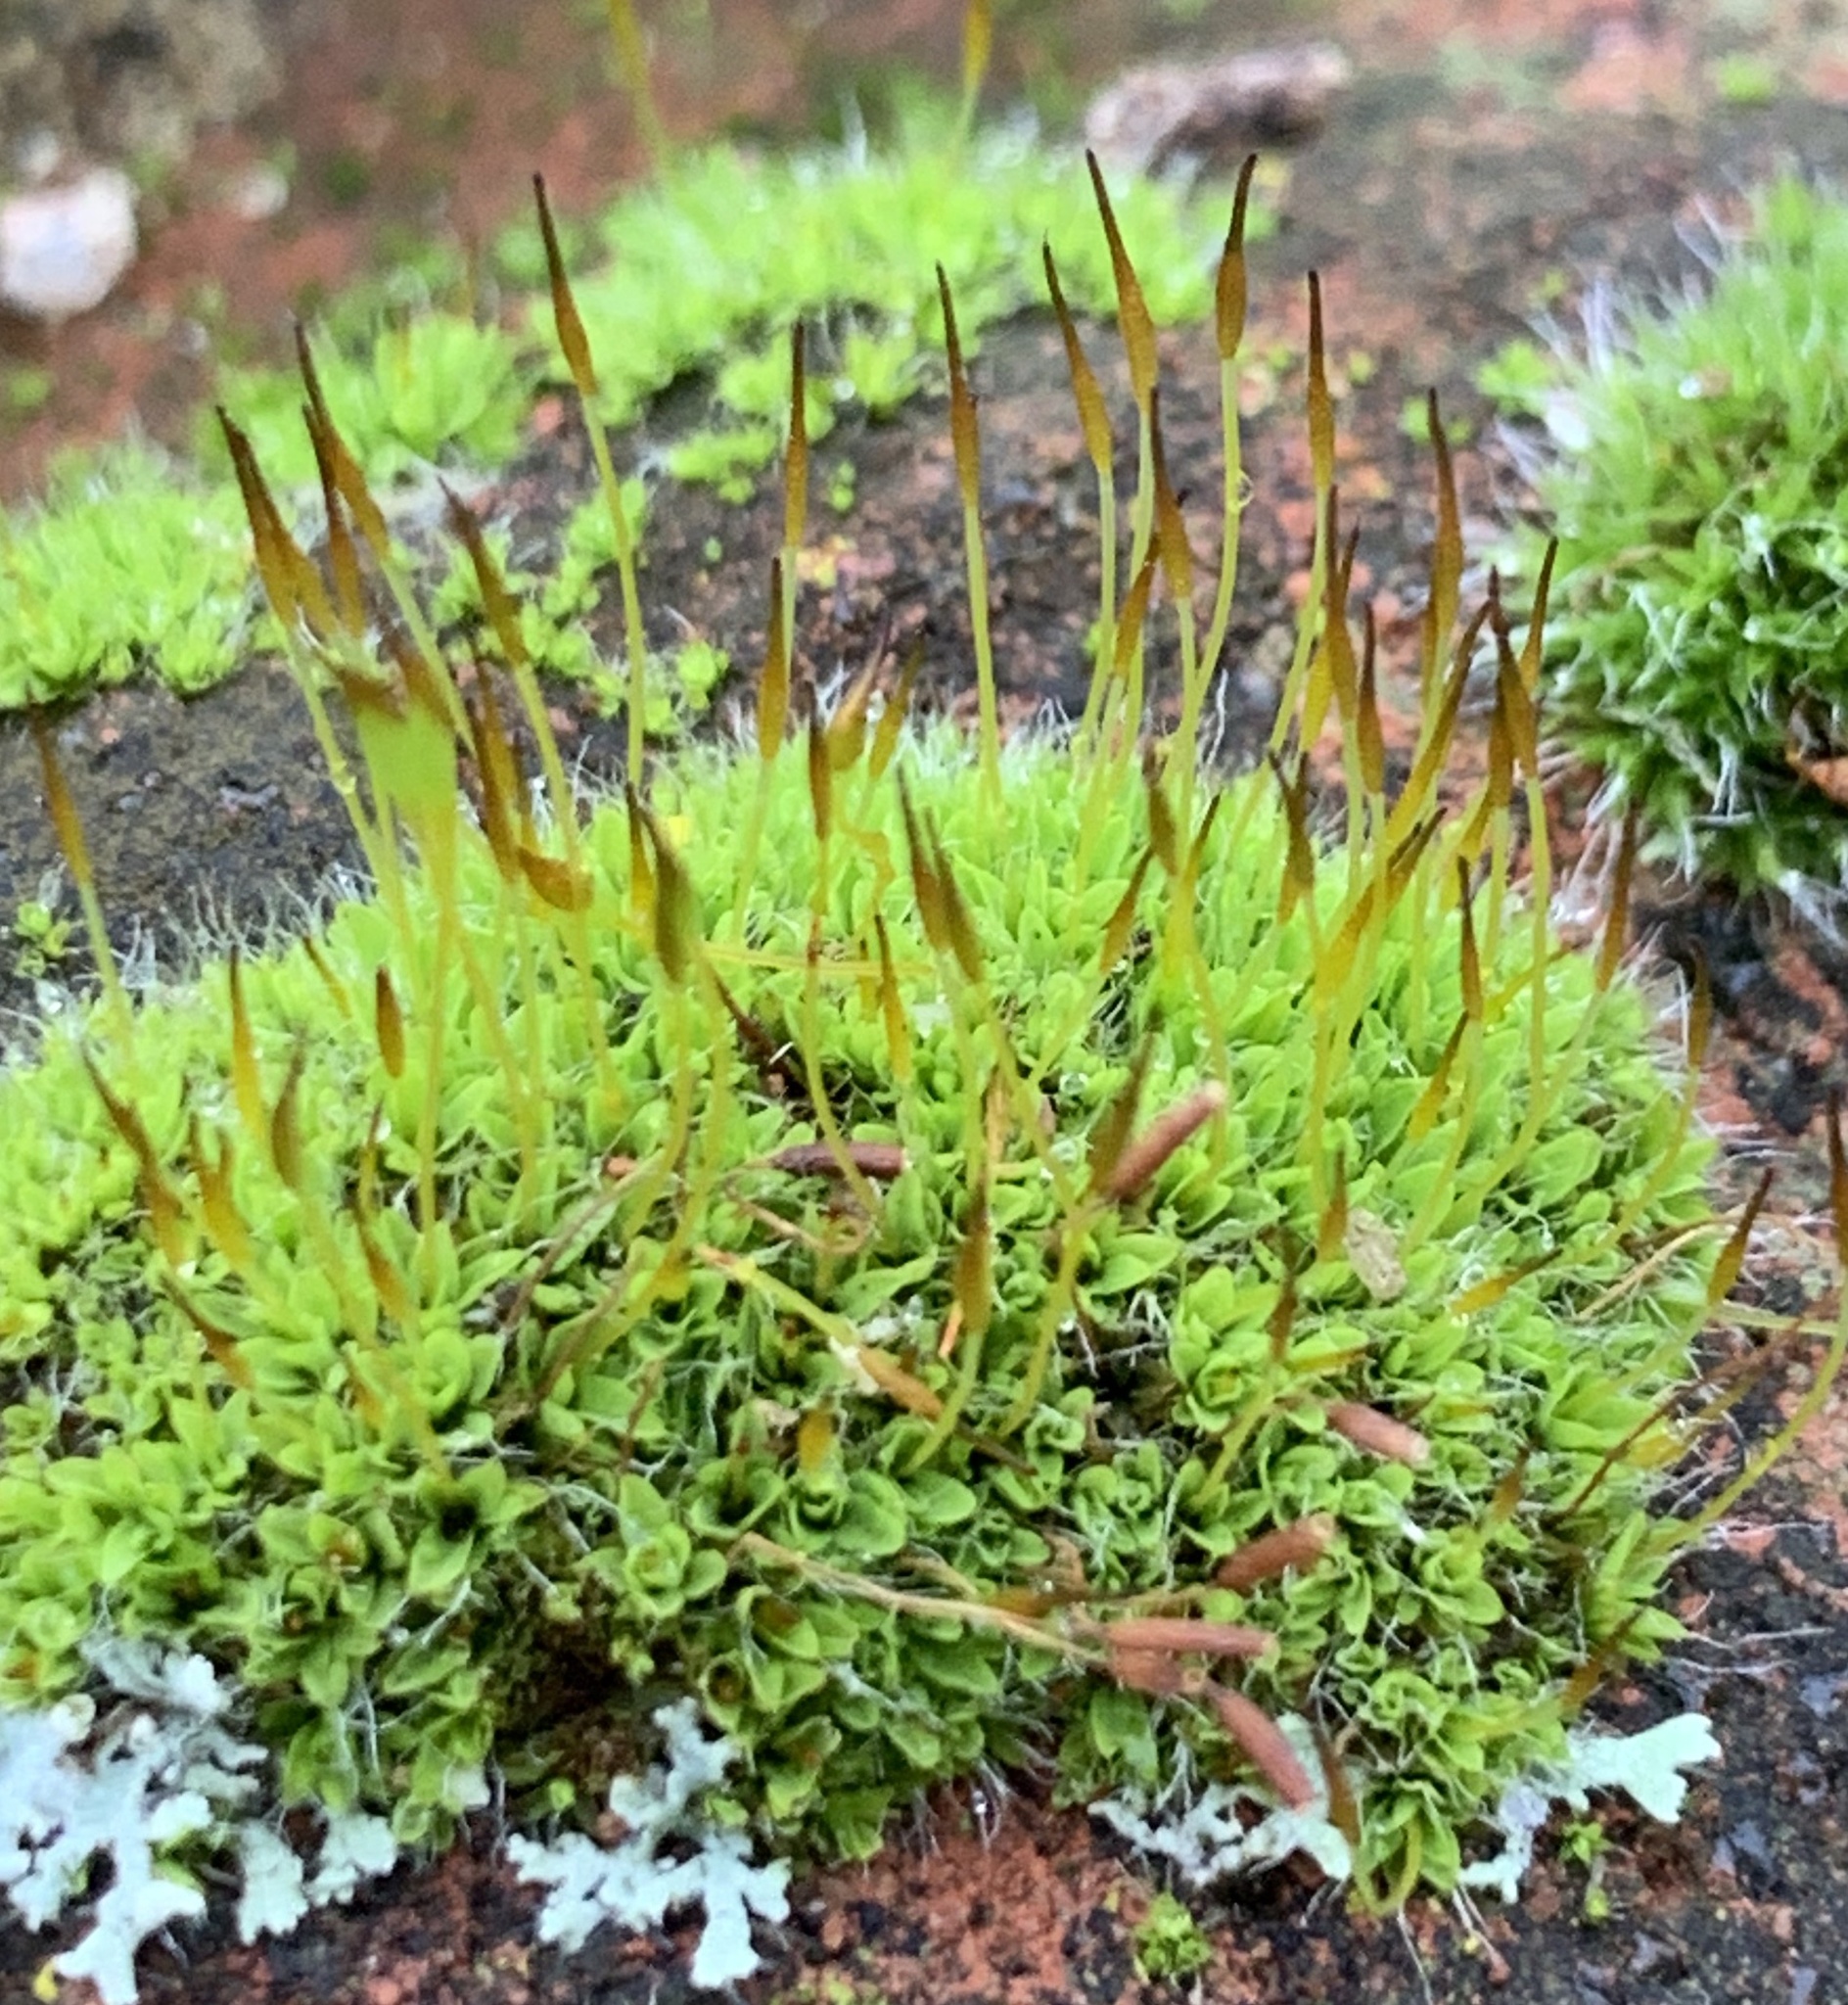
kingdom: Plantae
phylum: Bryophyta
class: Bryopsida
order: Pottiales
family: Pottiaceae
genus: Tortula
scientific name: Tortula muralis
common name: Wall screw-moss
